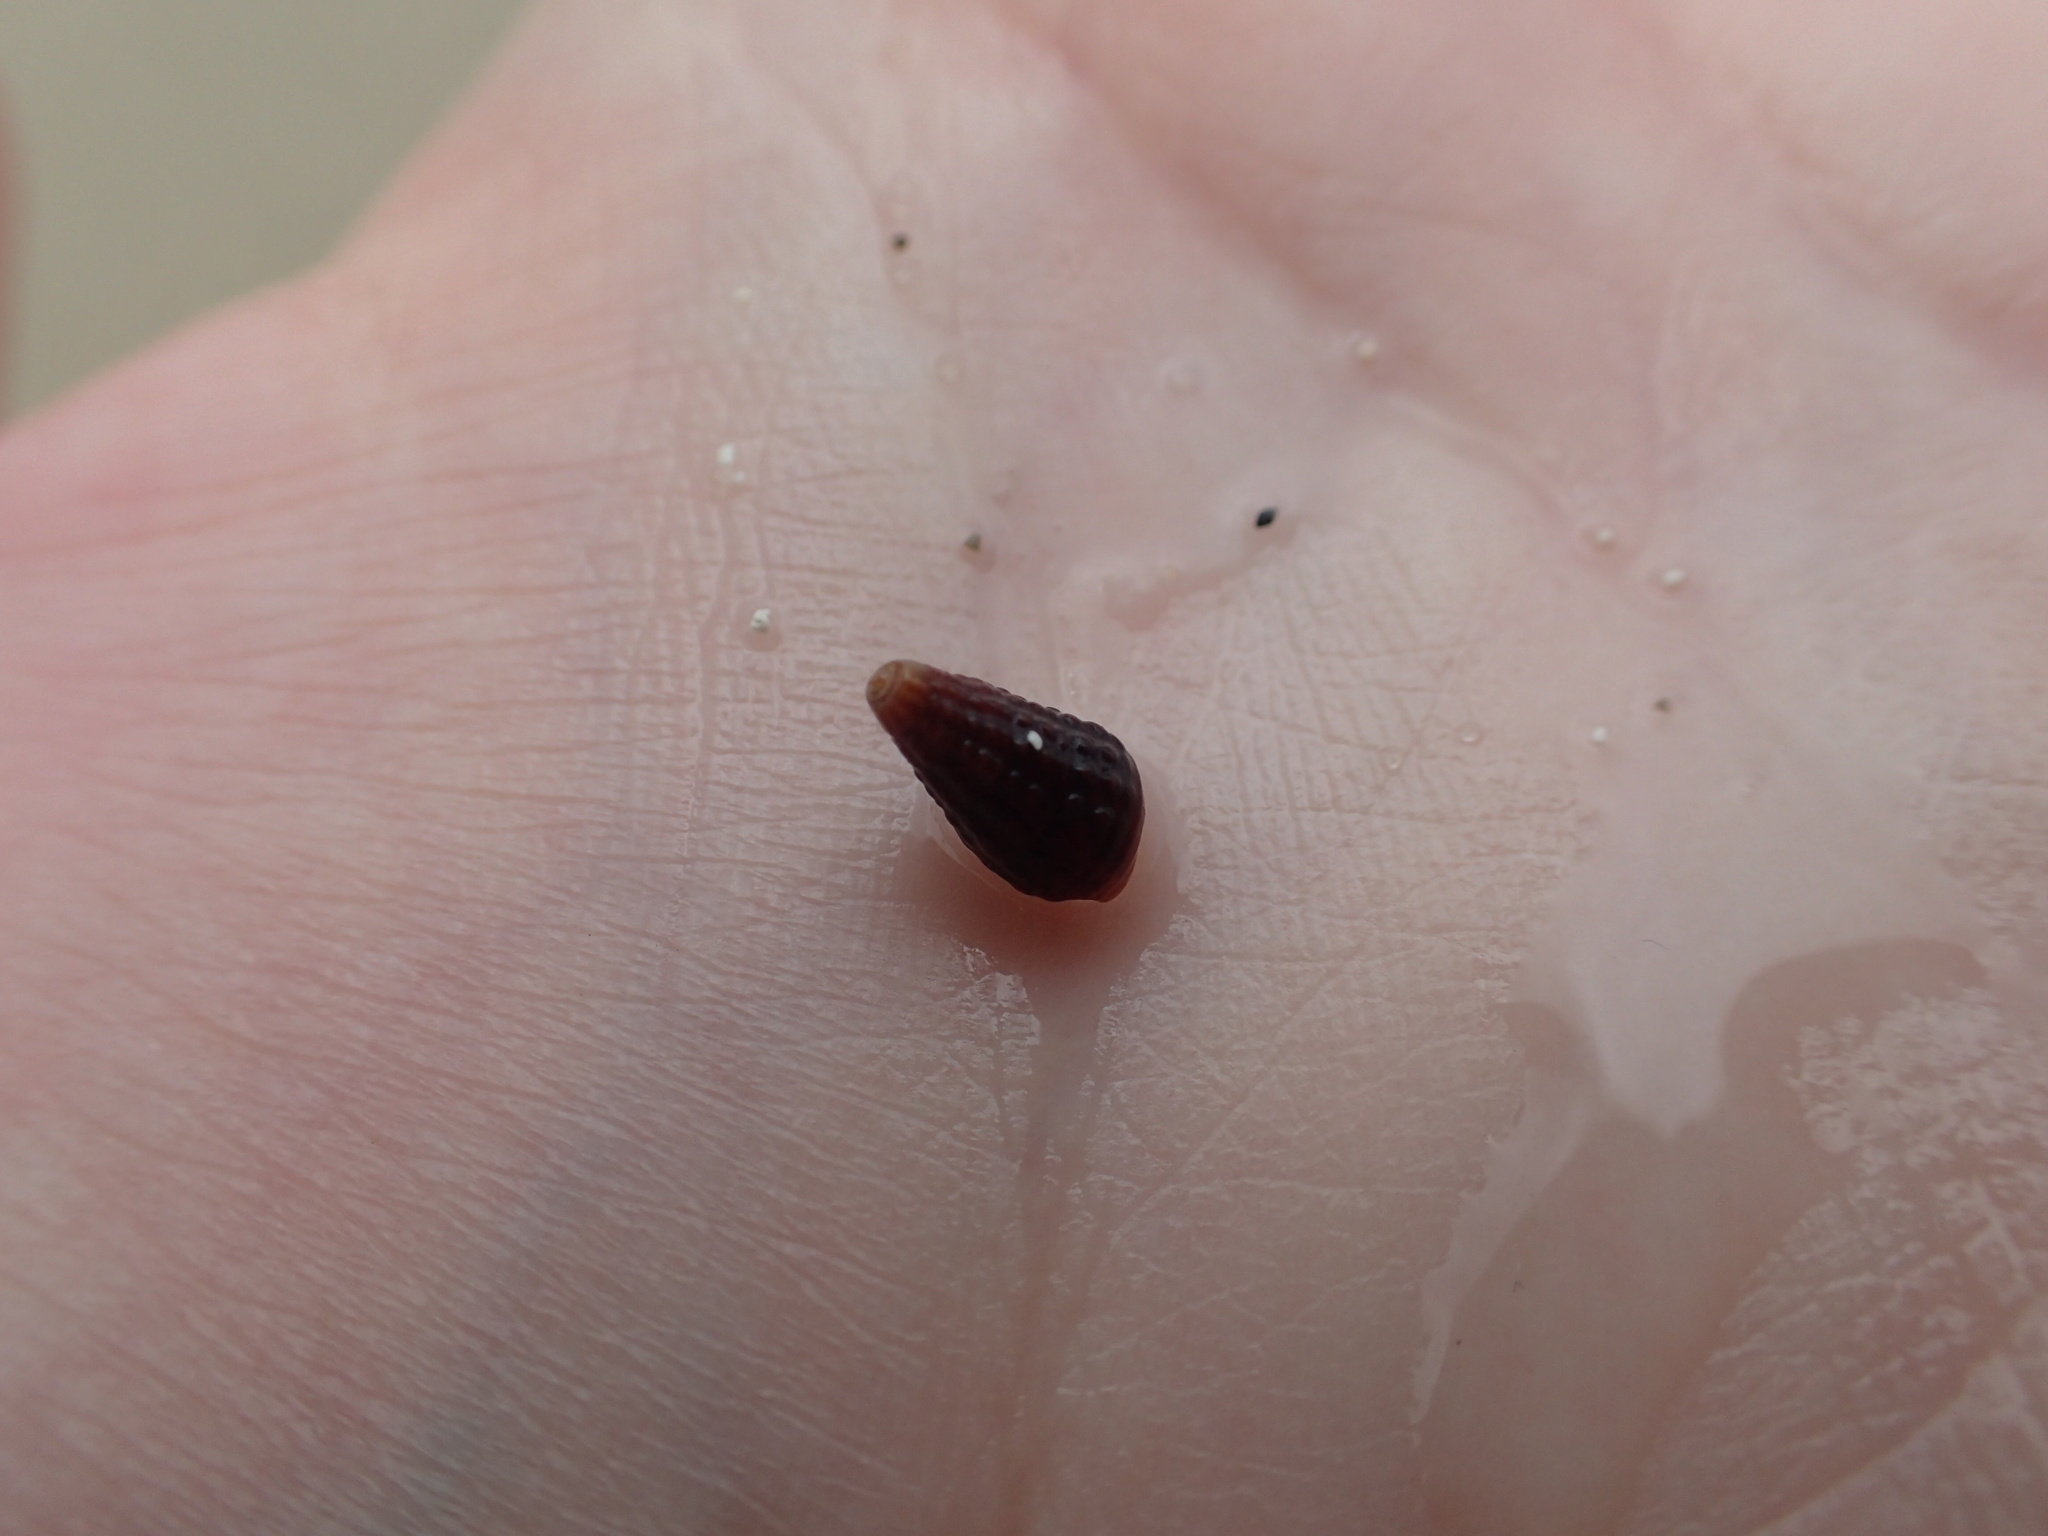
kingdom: Animalia
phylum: Mollusca
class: Gastropoda
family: Batillariidae
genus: Lampanella
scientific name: Lampanella minima
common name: West indian false cerith
